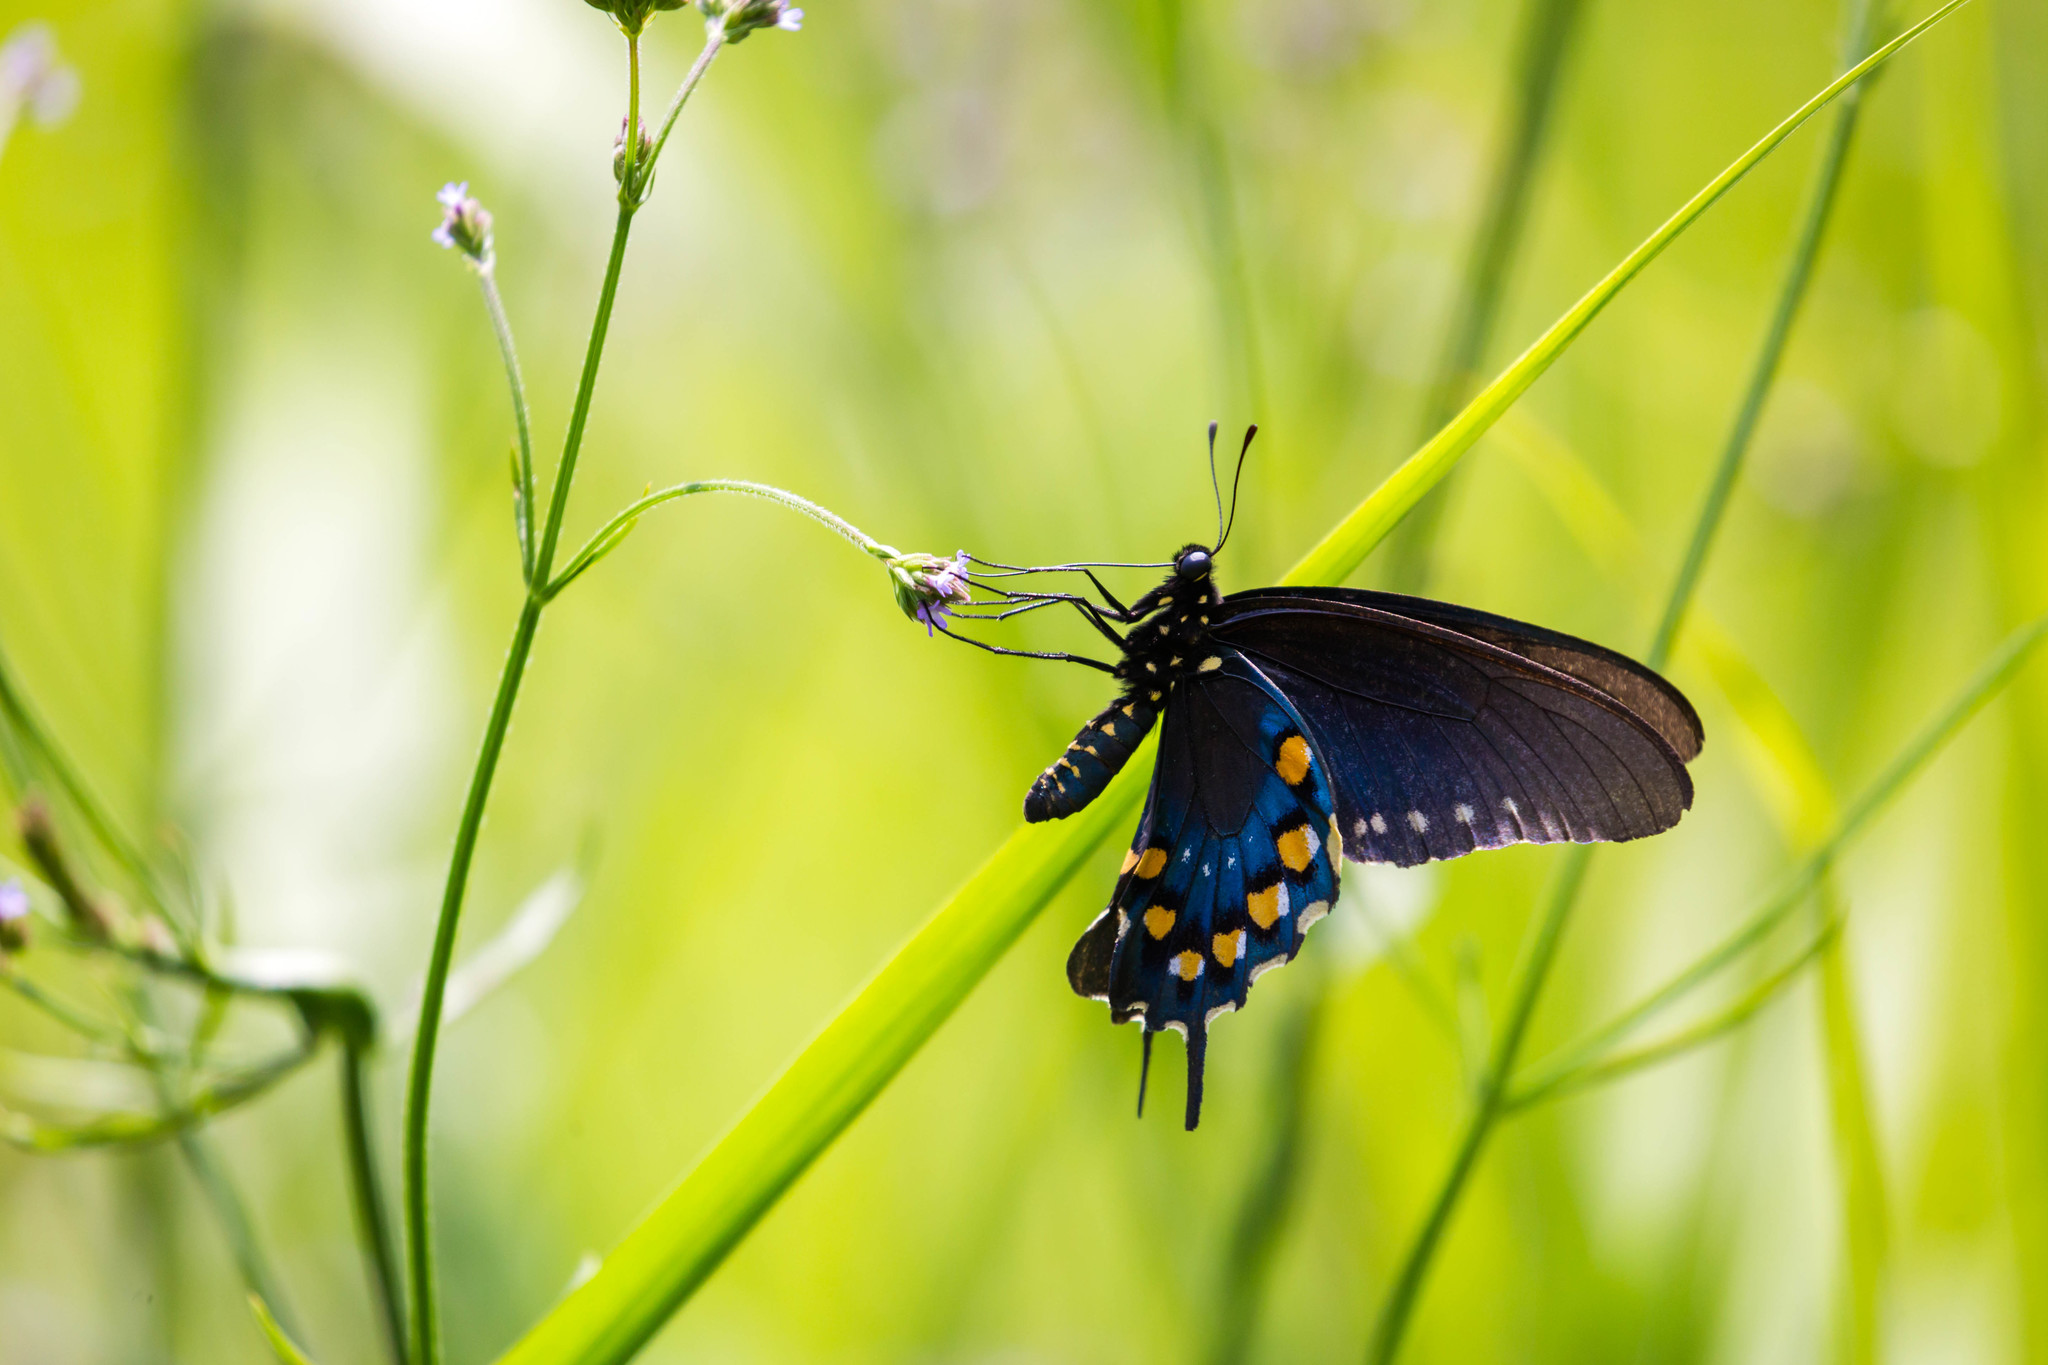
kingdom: Animalia
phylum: Arthropoda
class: Insecta
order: Lepidoptera
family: Papilionidae
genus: Battus
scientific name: Battus philenor
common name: Pipevine swallowtail
